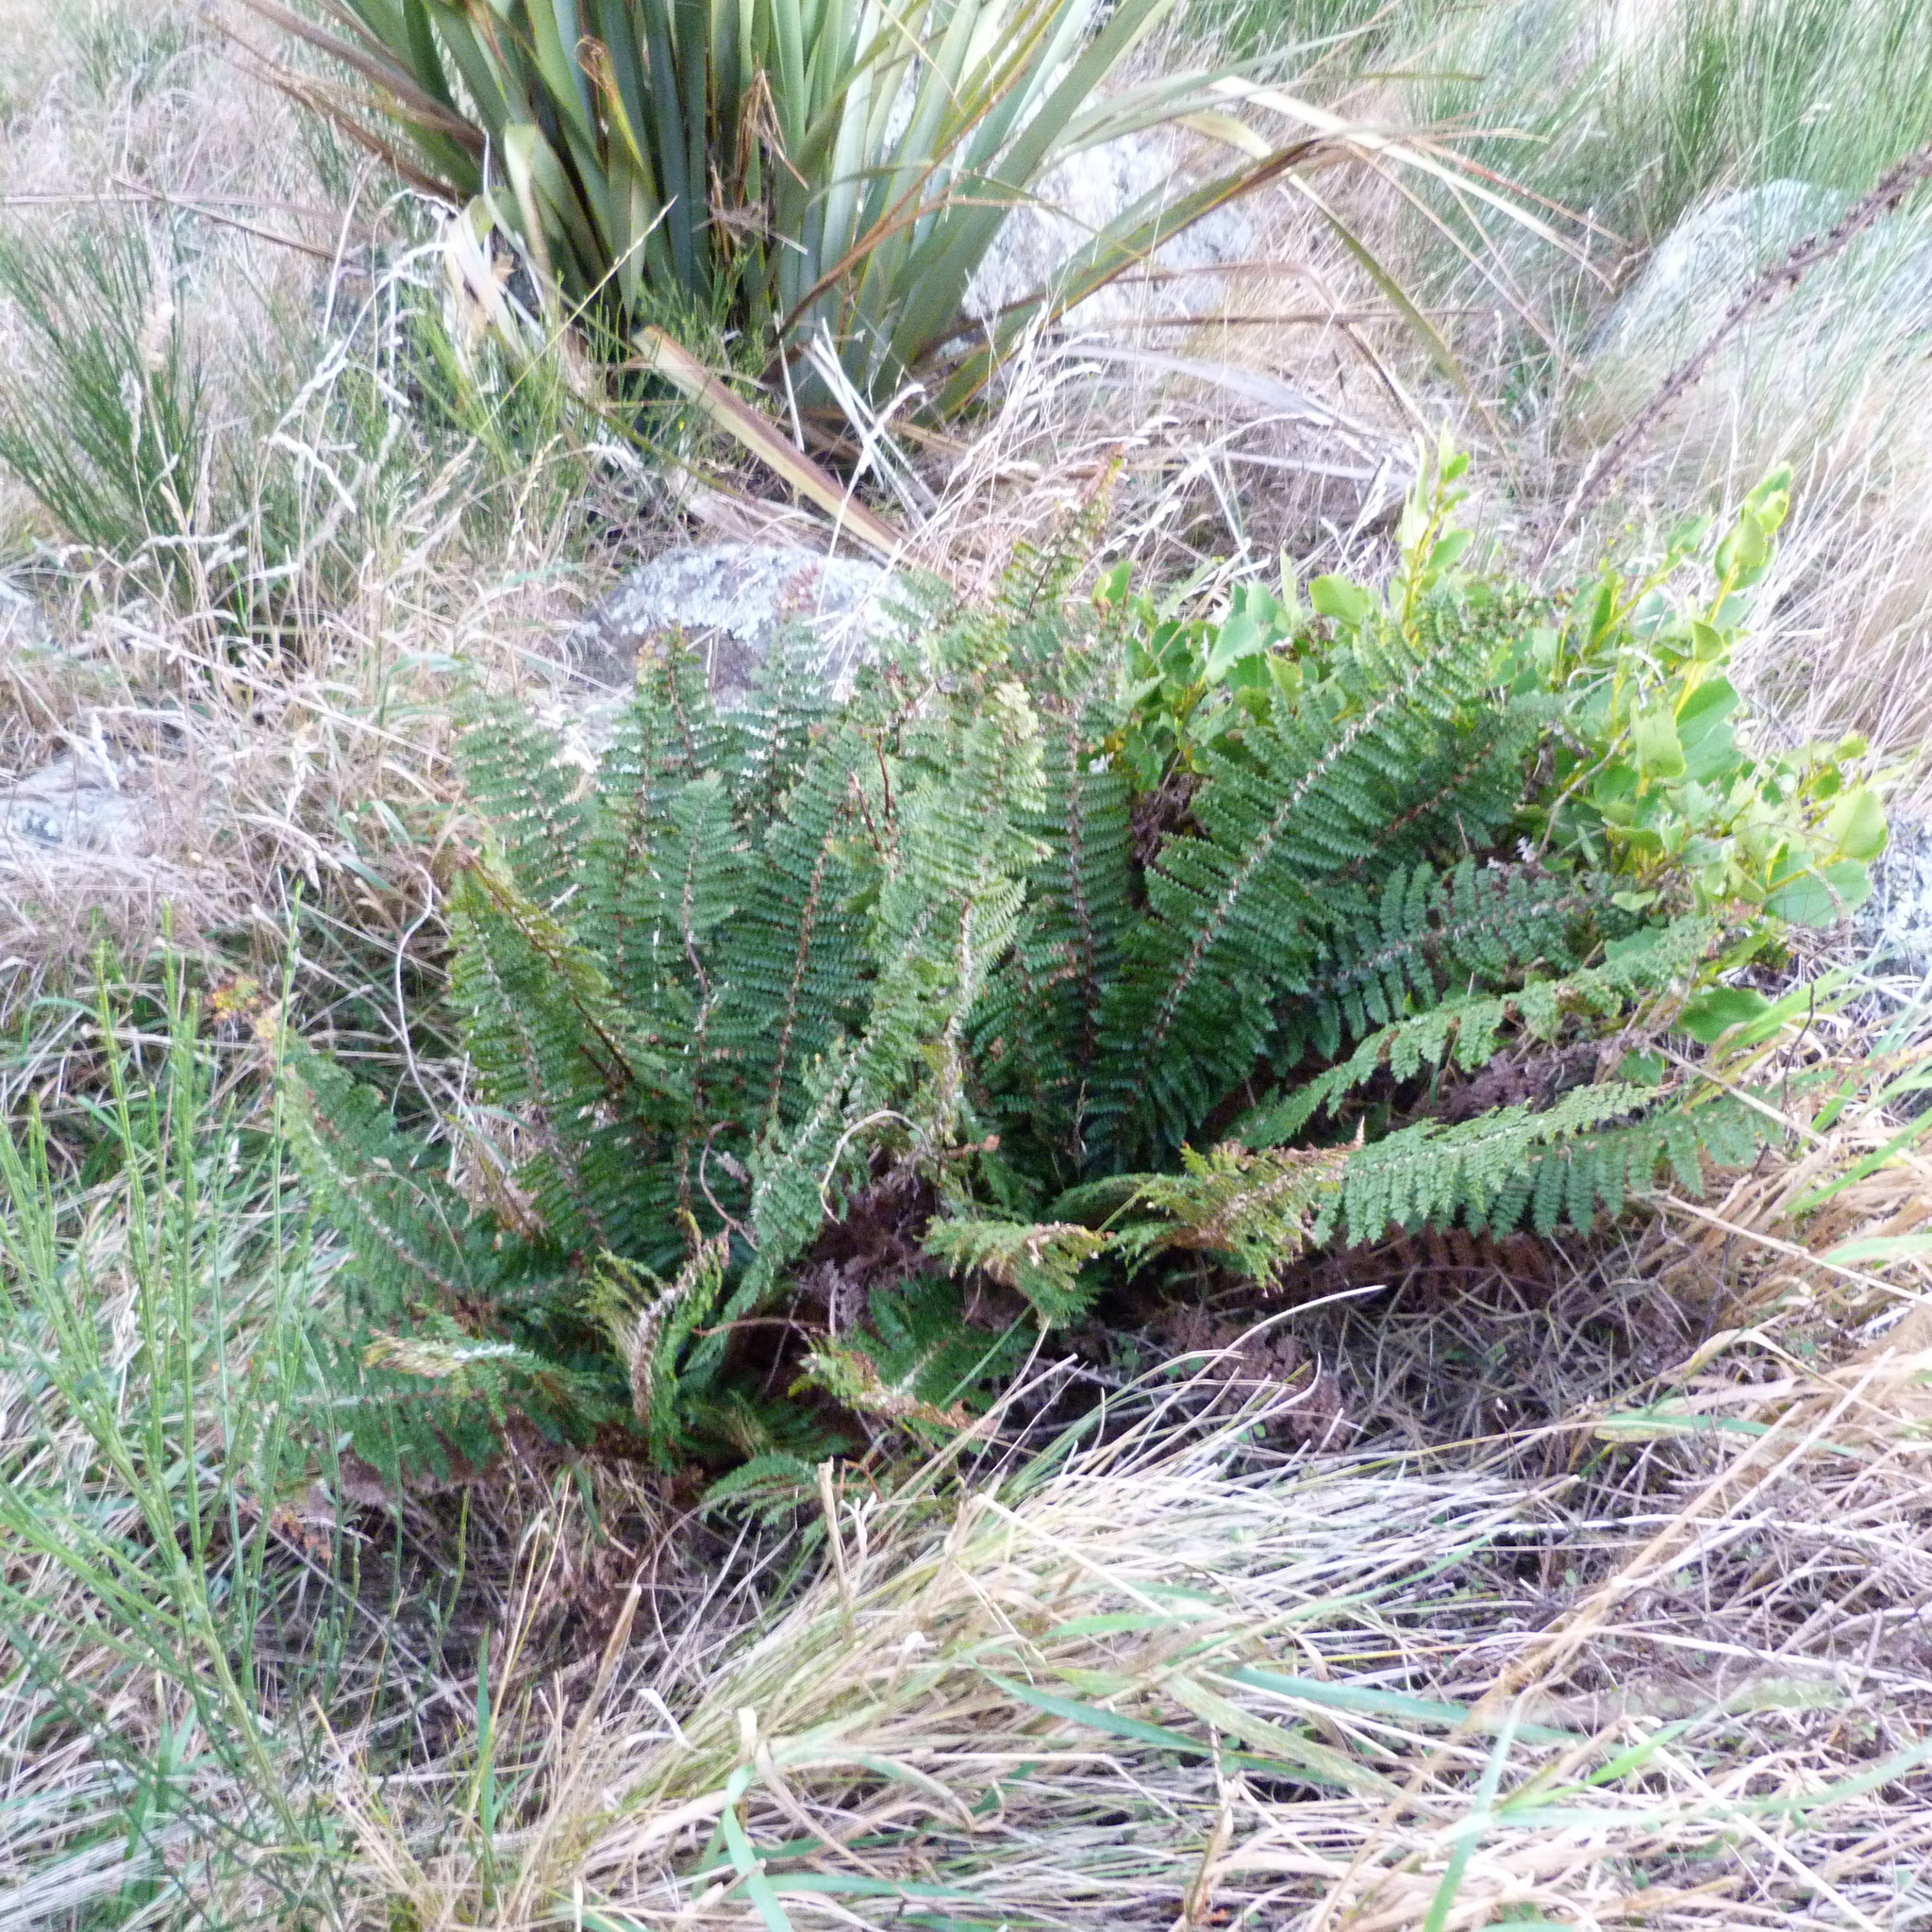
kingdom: Plantae
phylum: Tracheophyta
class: Polypodiopsida
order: Polypodiales
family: Dryopteridaceae
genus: Polystichum
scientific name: Polystichum vestitum
